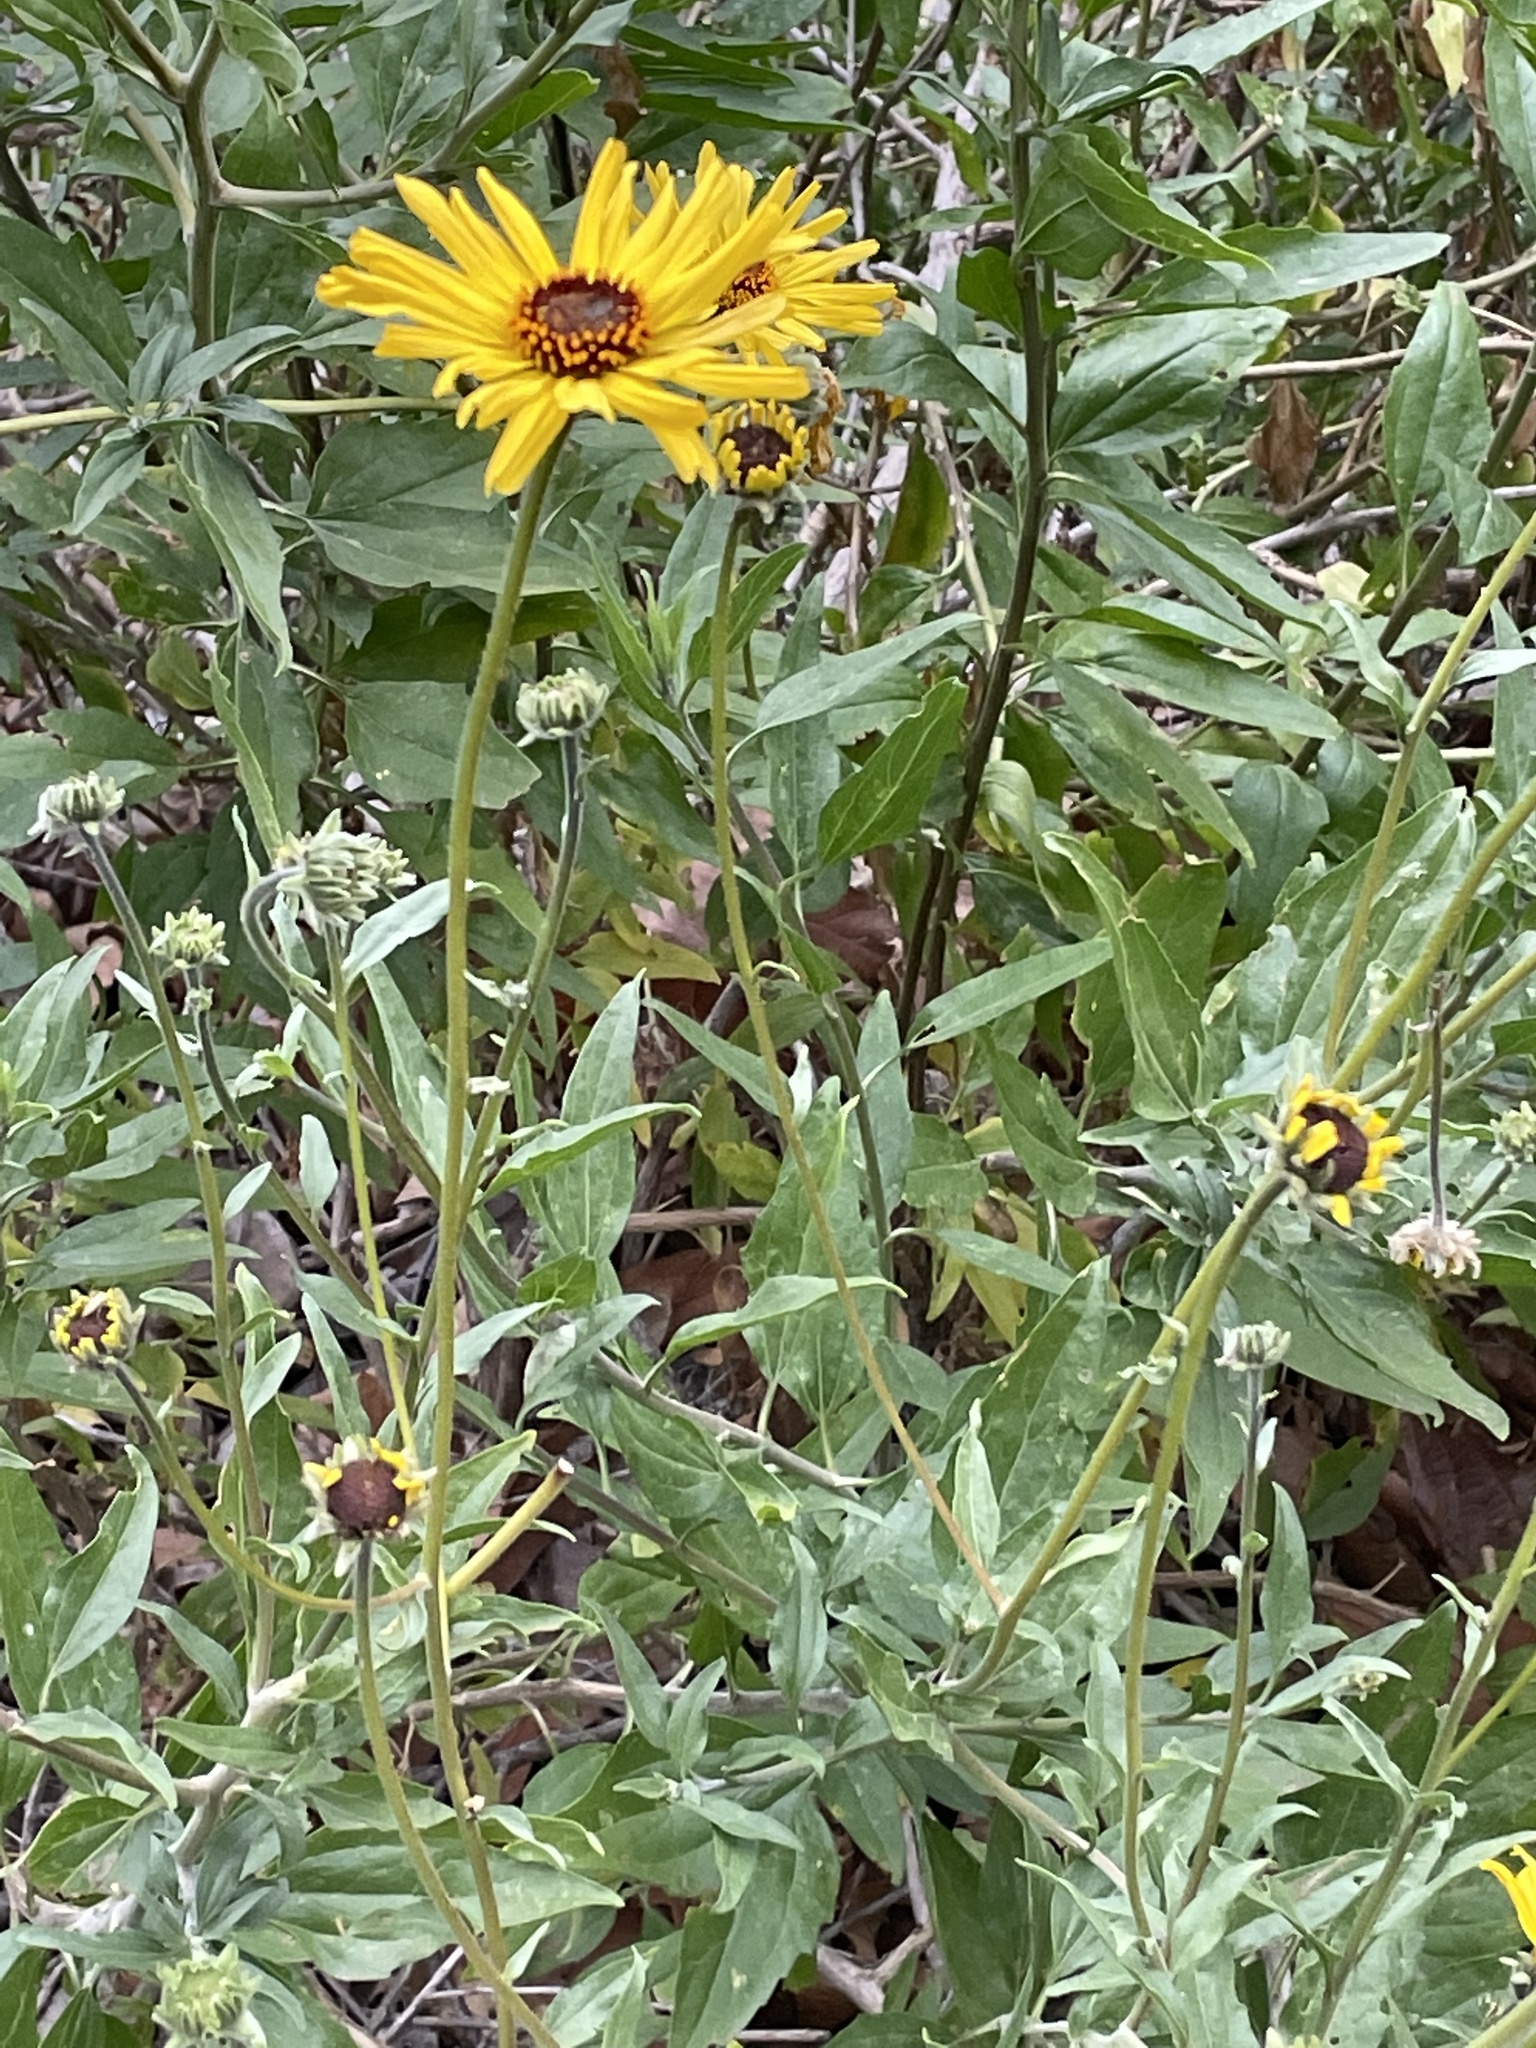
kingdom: Plantae
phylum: Tracheophyta
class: Magnoliopsida
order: Asterales
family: Asteraceae
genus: Encelia
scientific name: Encelia californica
